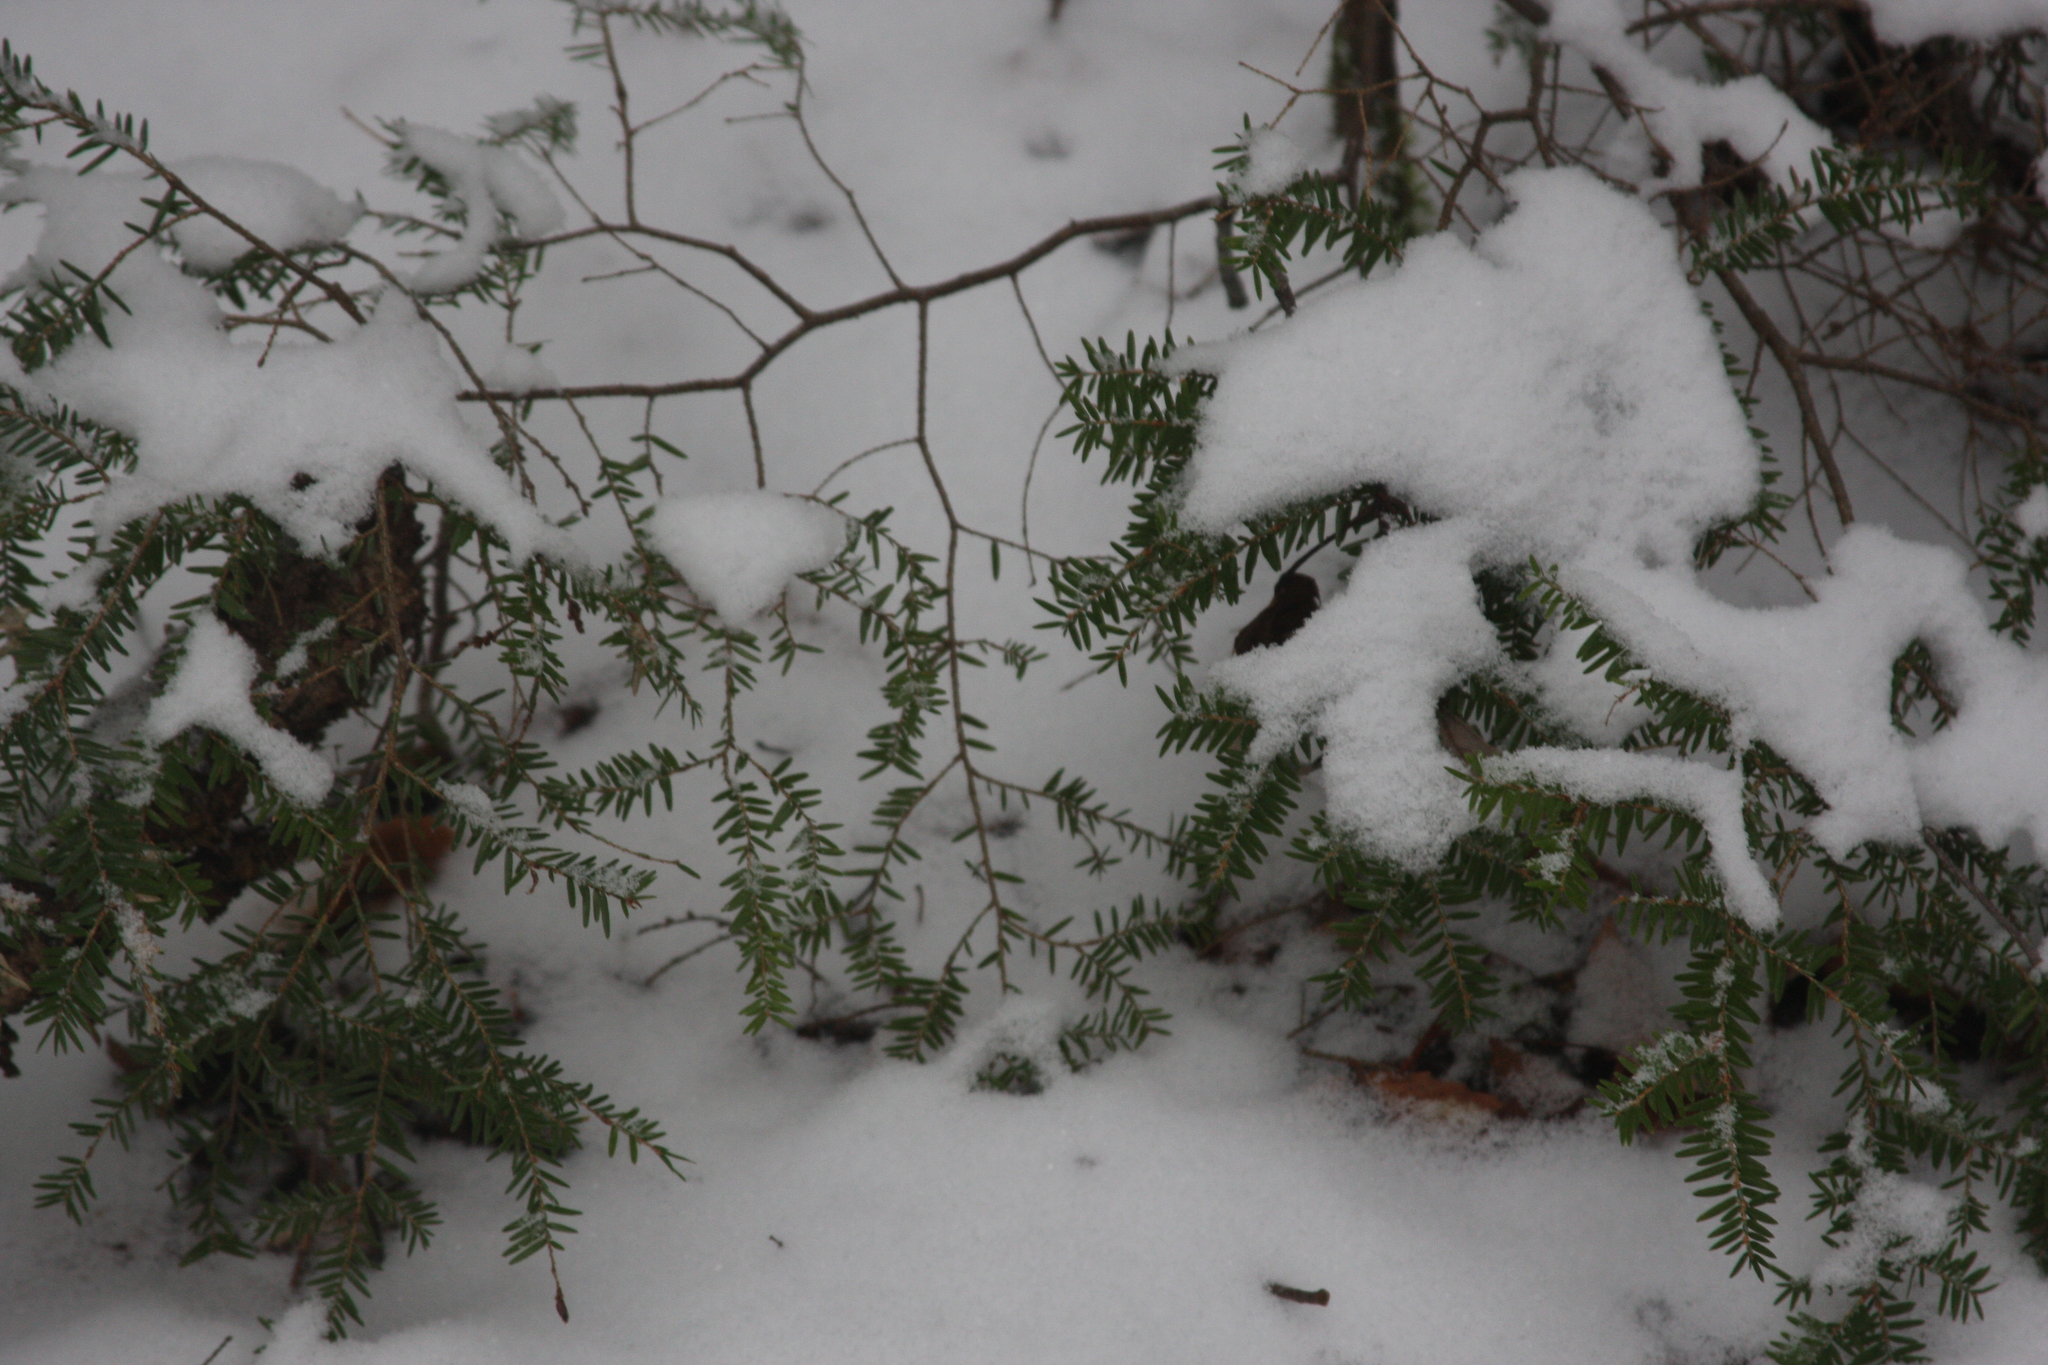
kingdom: Plantae
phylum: Tracheophyta
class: Pinopsida
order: Pinales
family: Pinaceae
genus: Tsuga
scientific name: Tsuga canadensis
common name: Eastern hemlock
